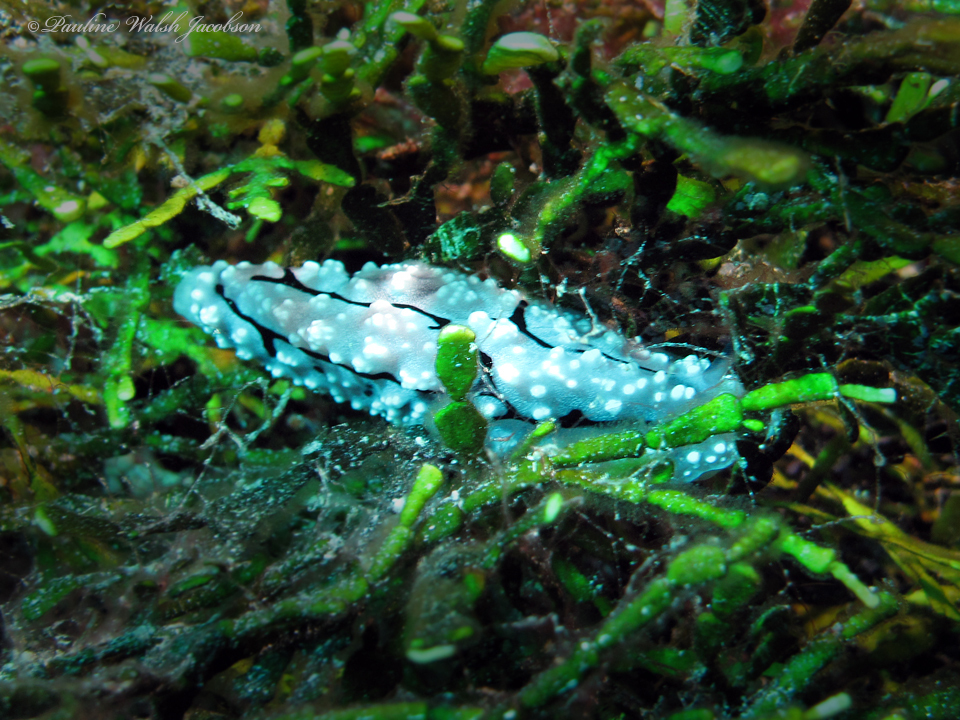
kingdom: Animalia
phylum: Mollusca
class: Gastropoda
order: Nudibranchia
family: Phyllidiidae
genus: Phyllidiopsis
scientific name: Phyllidiopsis krempfi
